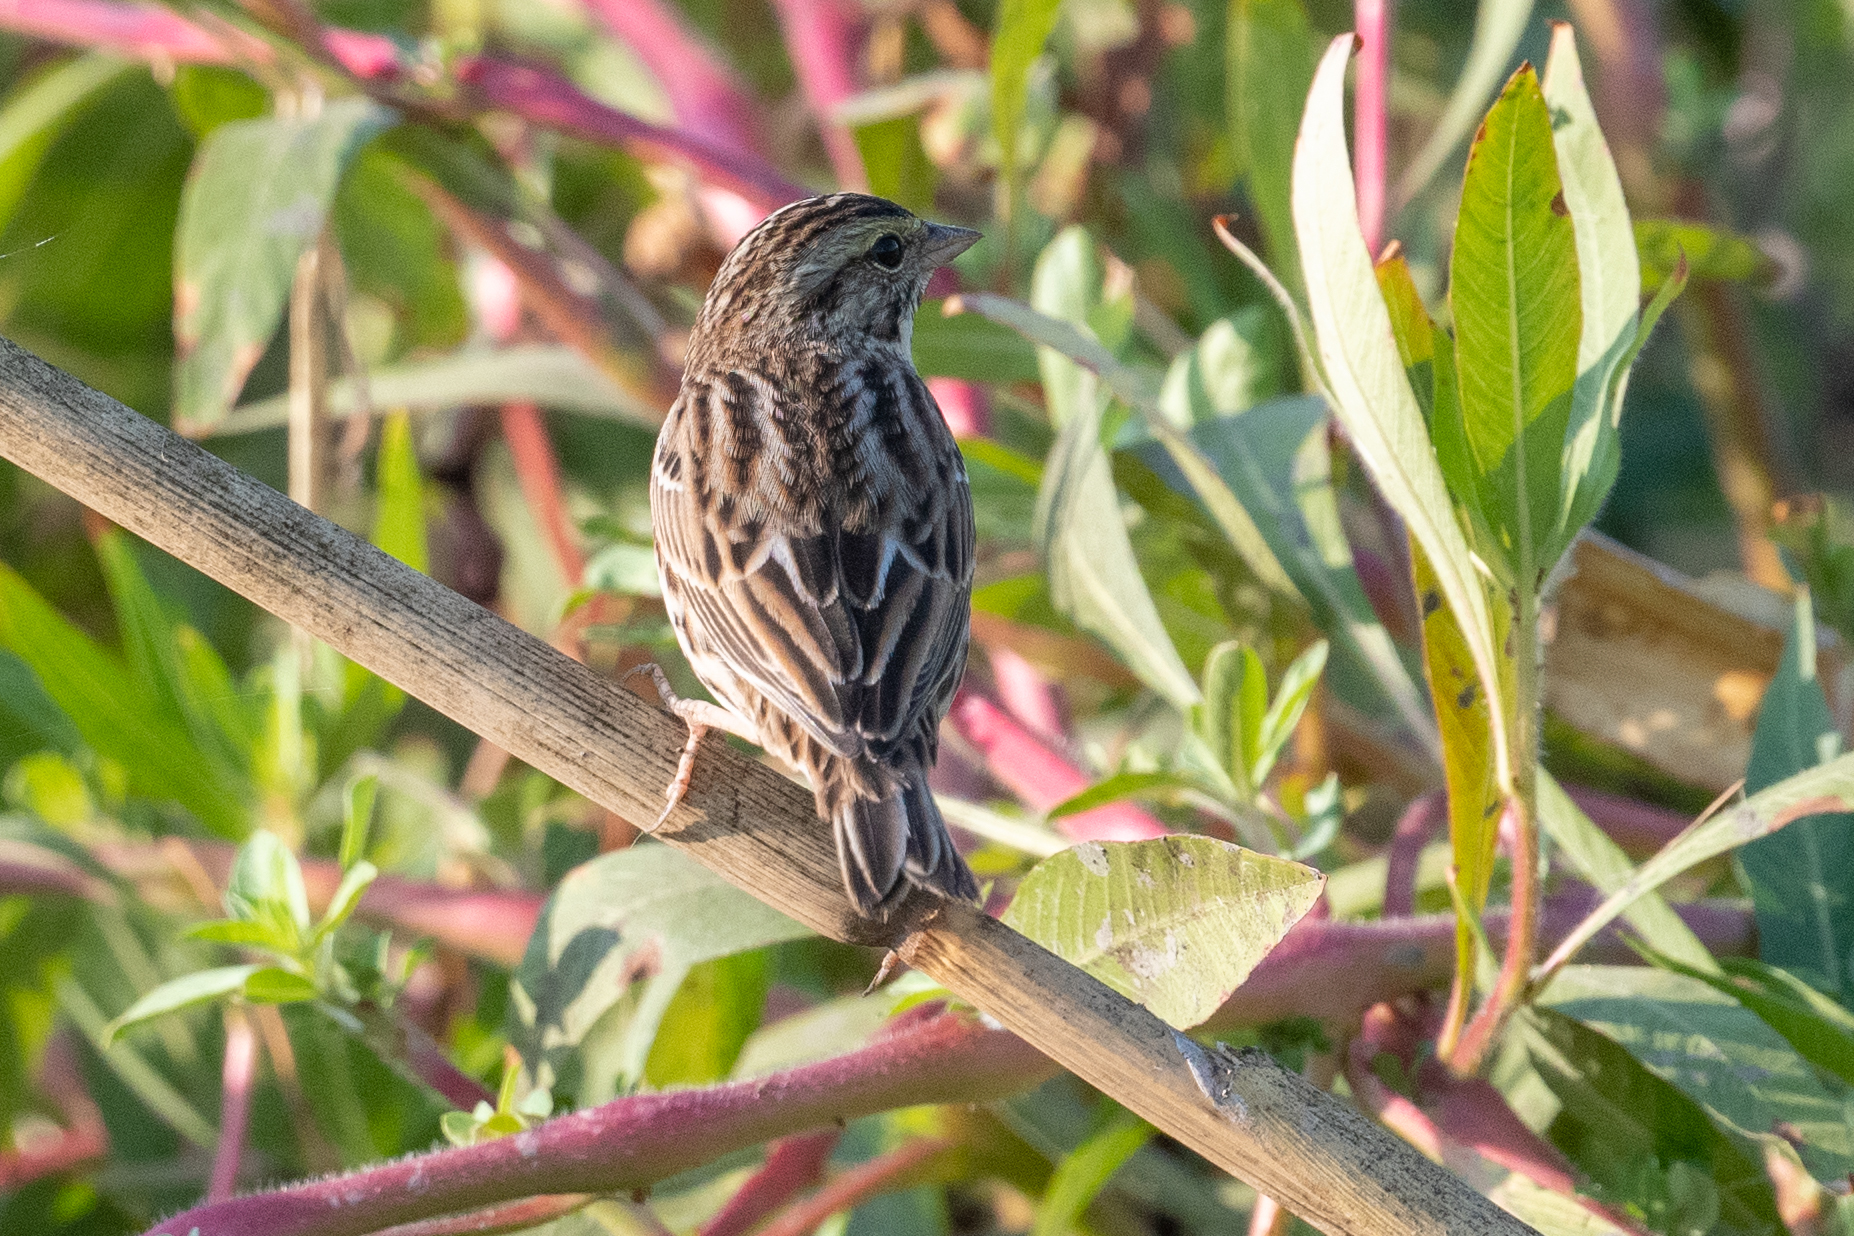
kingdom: Animalia
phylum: Chordata
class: Aves
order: Passeriformes
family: Passerellidae
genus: Passerculus
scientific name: Passerculus sandwichensis
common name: Savannah sparrow
